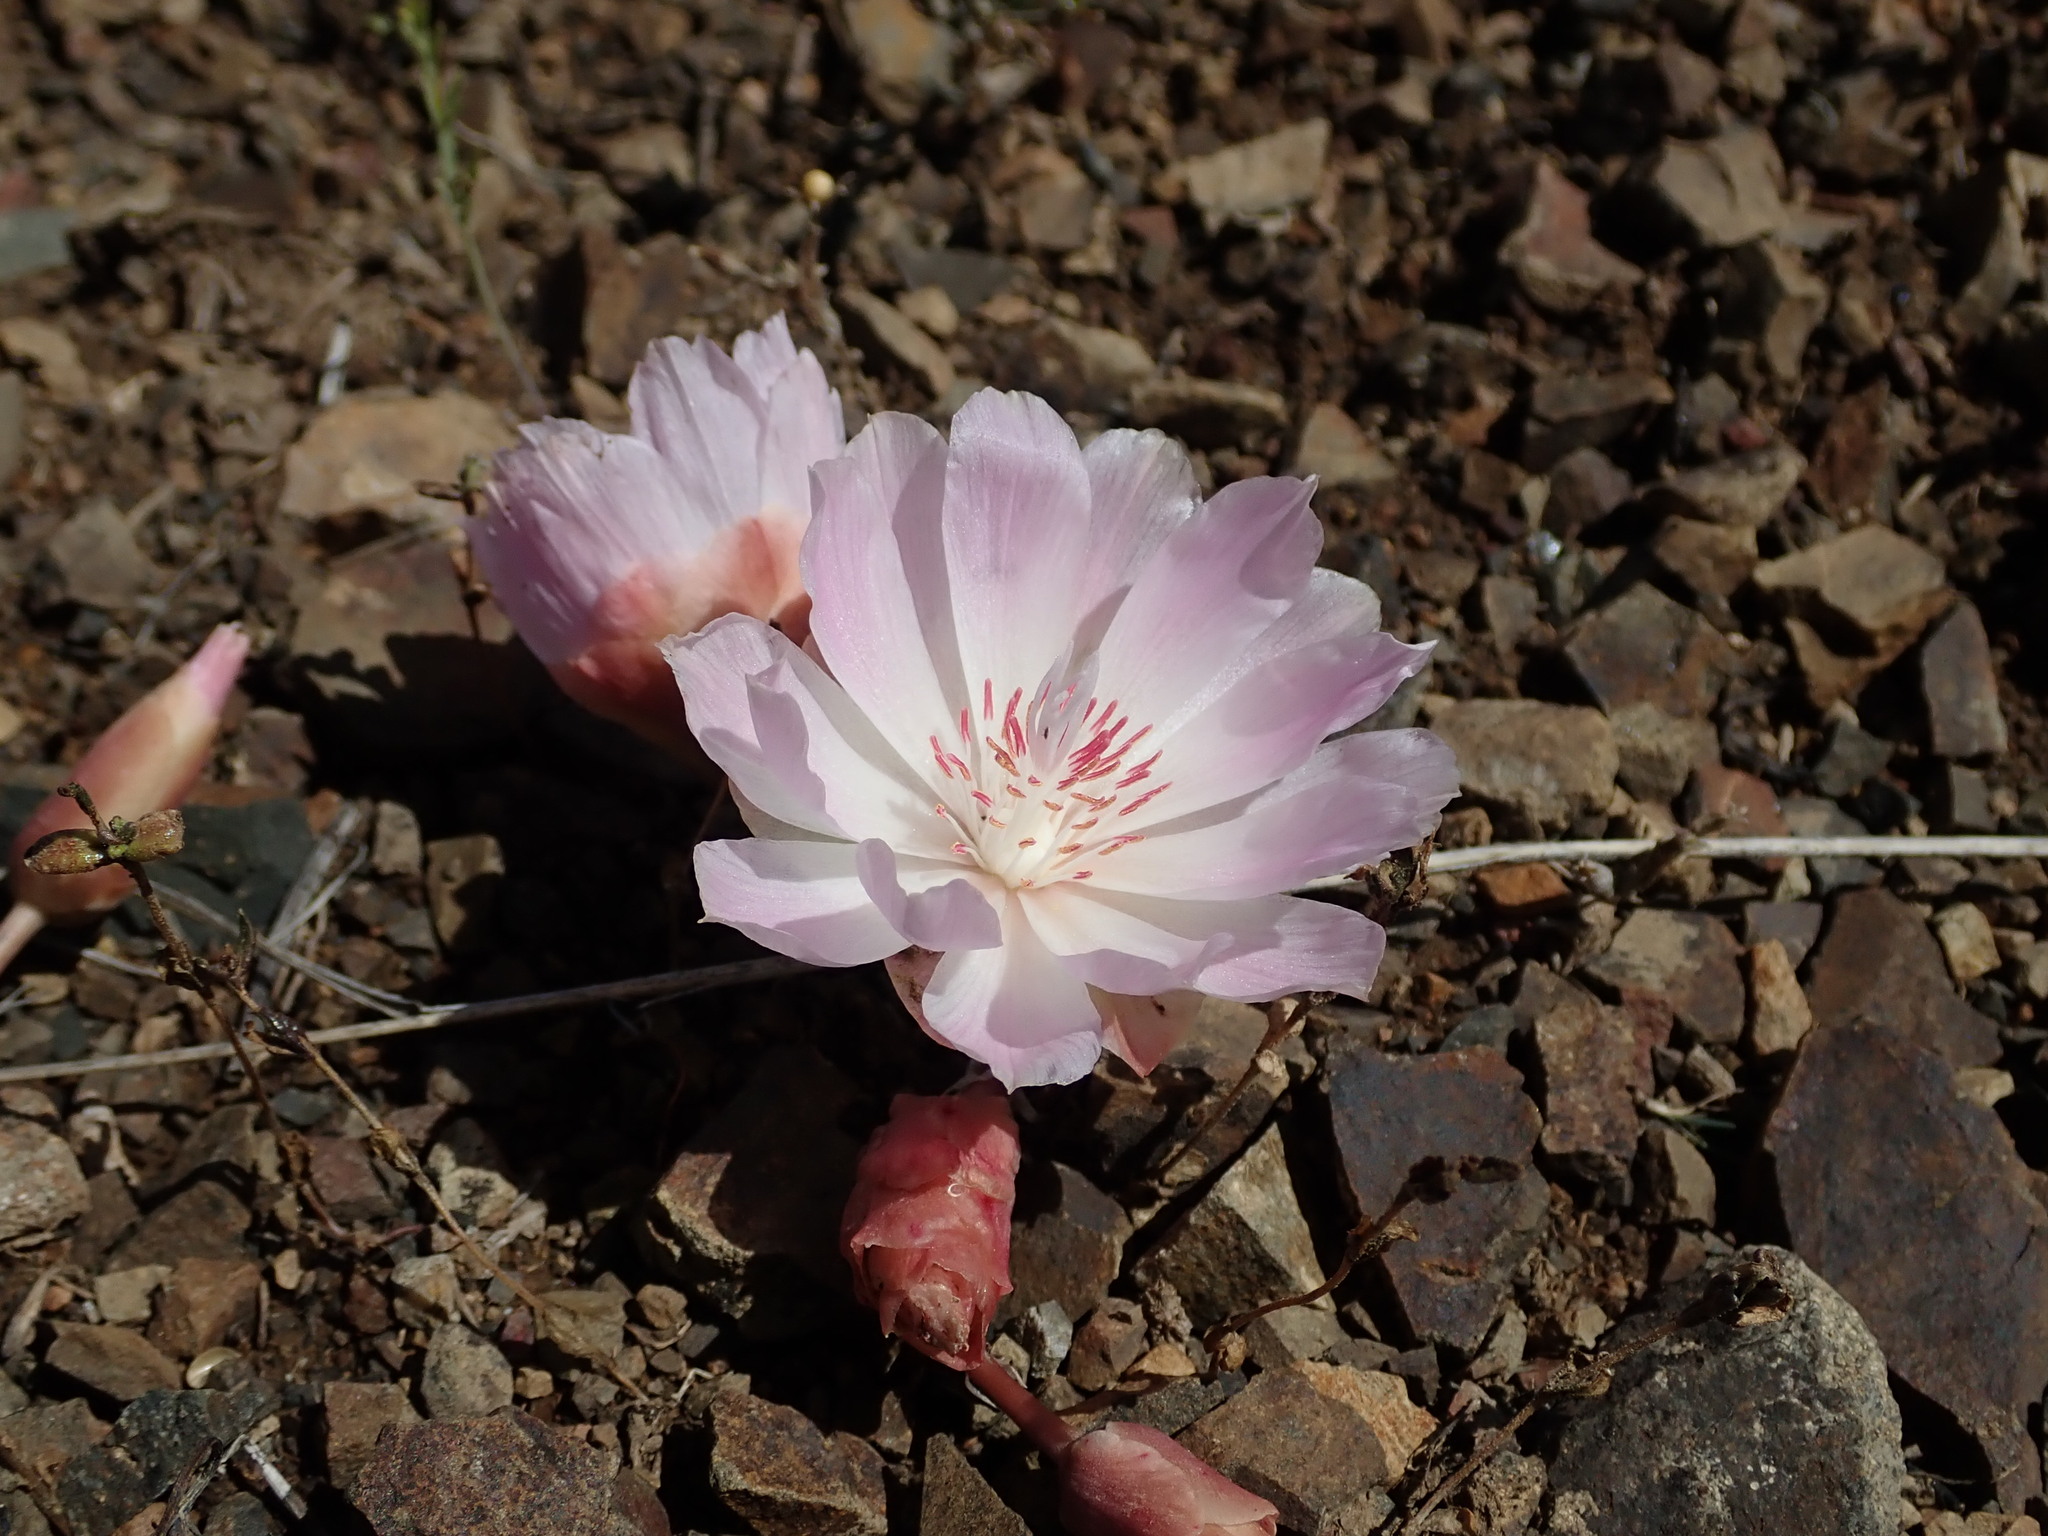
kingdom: Plantae
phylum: Tracheophyta
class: Magnoliopsida
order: Caryophyllales
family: Montiaceae
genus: Lewisia
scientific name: Lewisia rediviva
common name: Bitter-root
